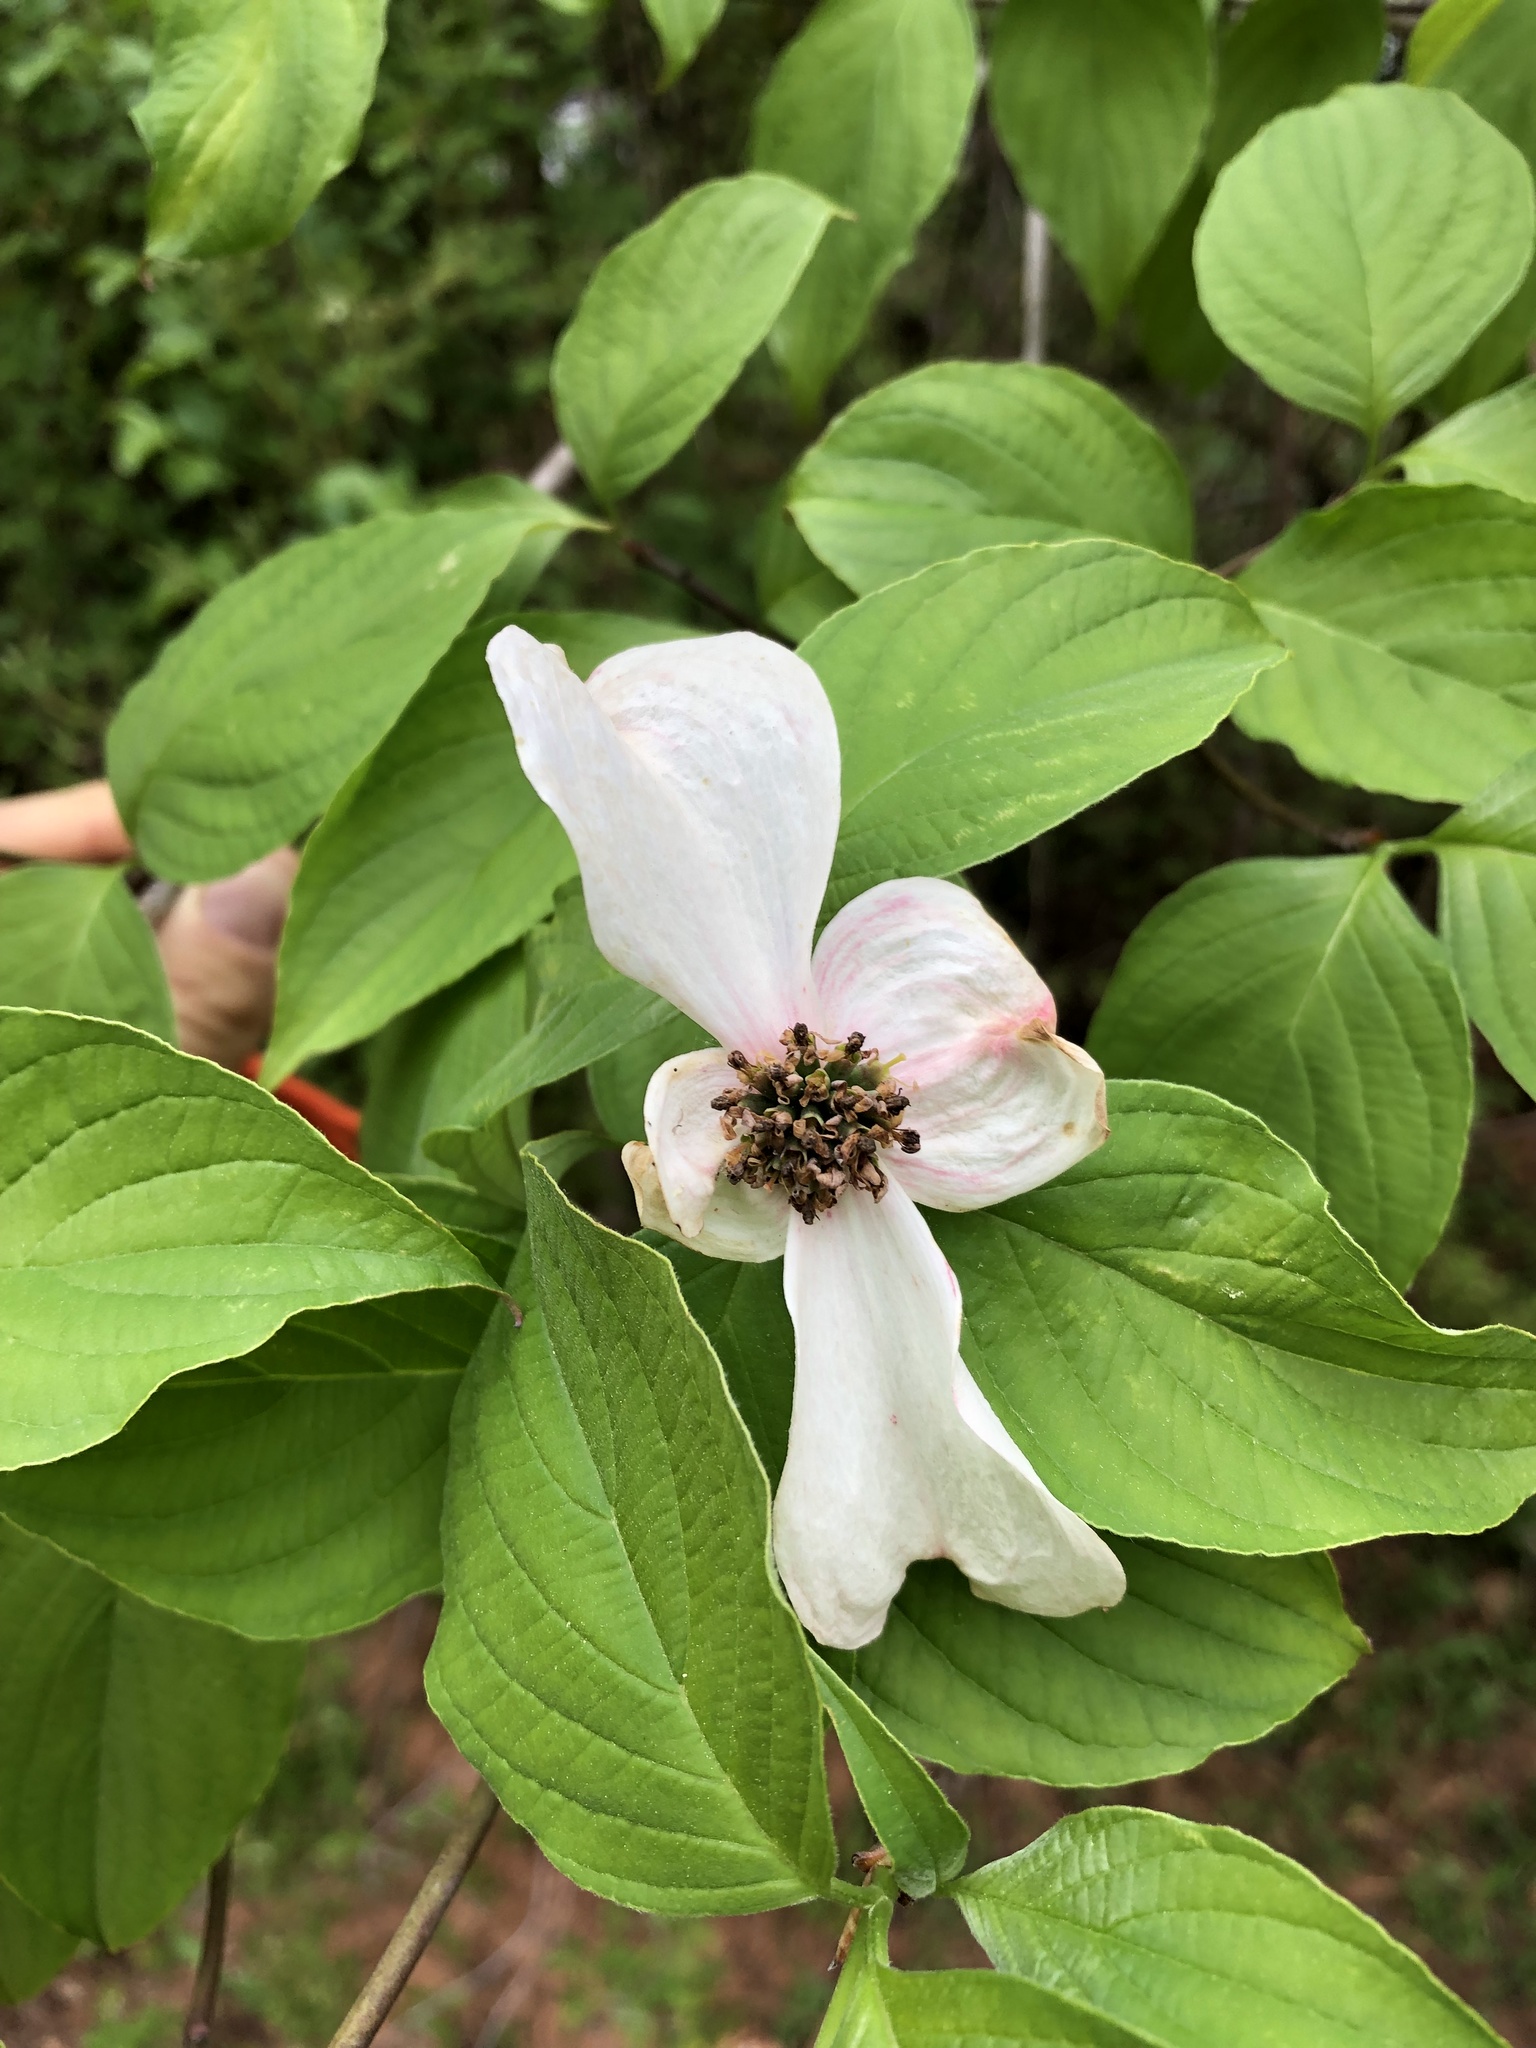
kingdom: Plantae
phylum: Tracheophyta
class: Magnoliopsida
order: Cornales
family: Cornaceae
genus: Cornus
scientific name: Cornus florida
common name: Flowering dogwood
